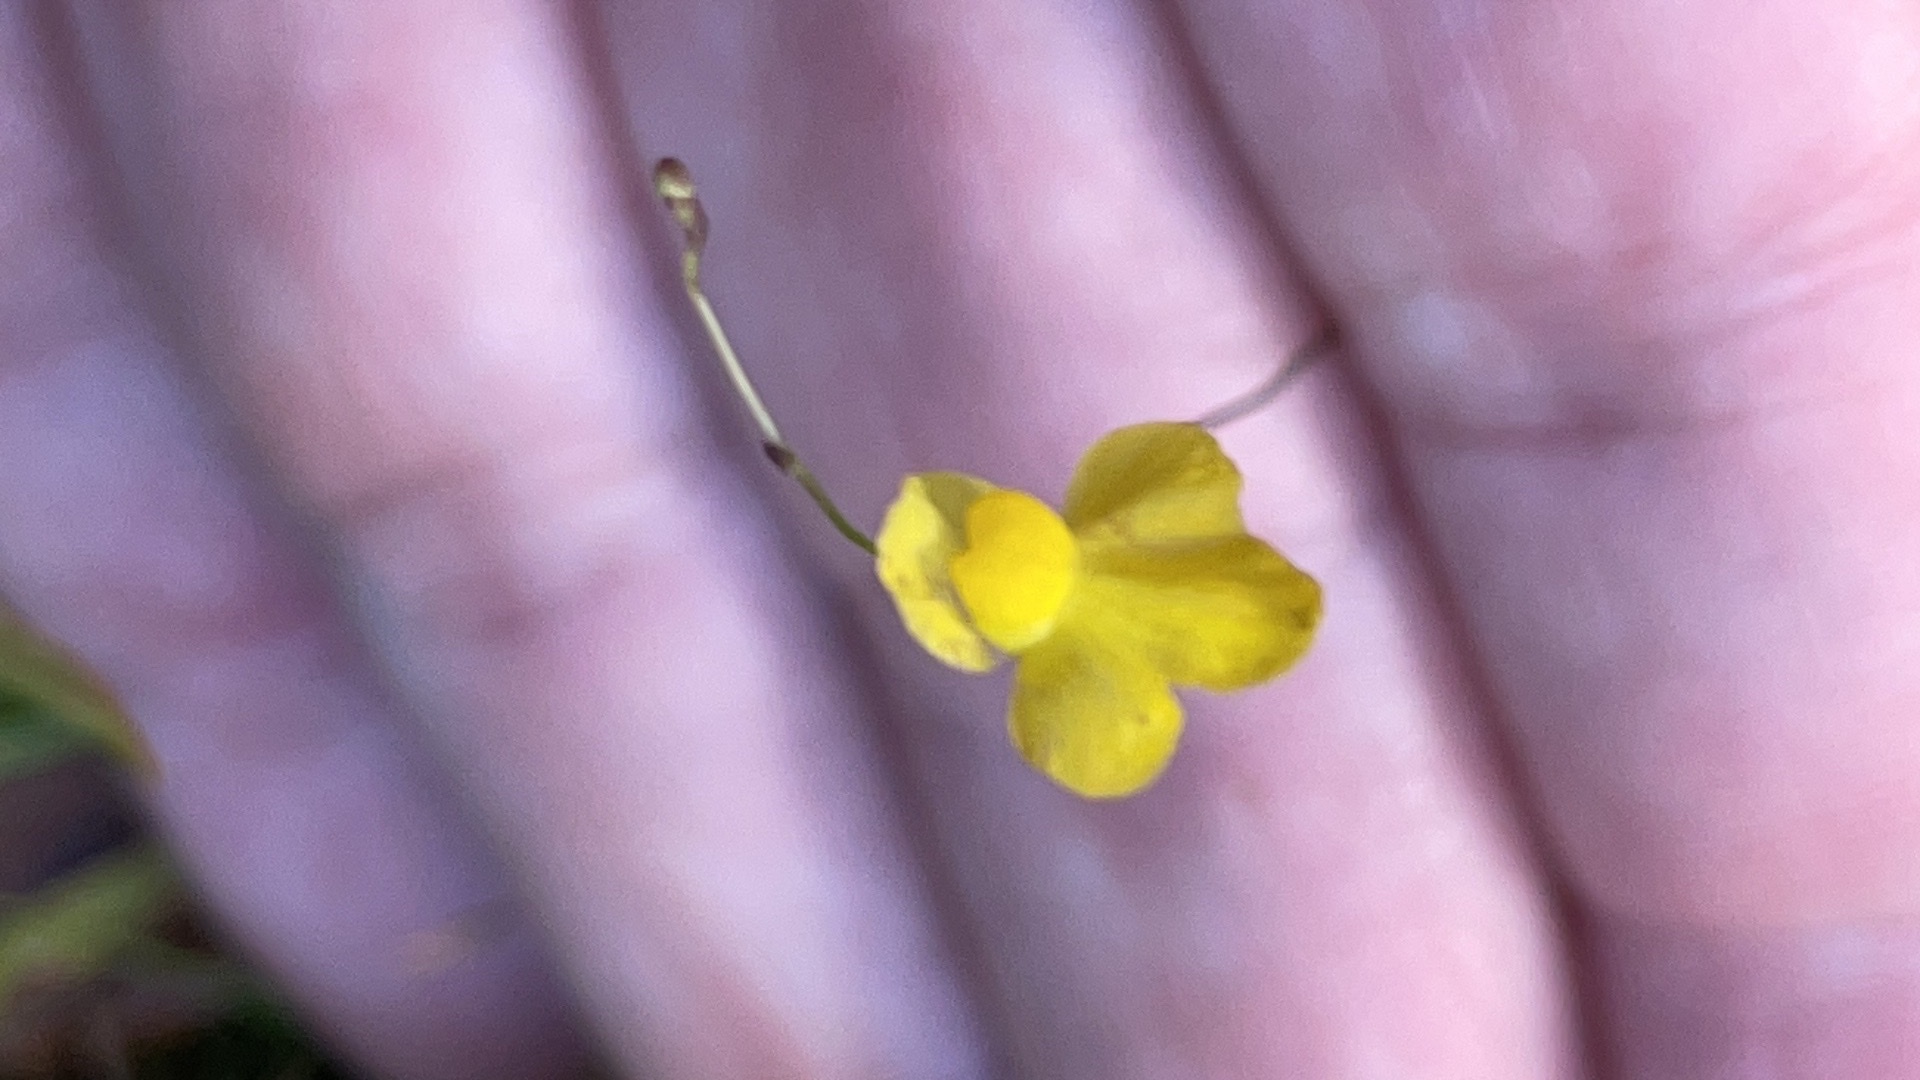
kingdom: Plantae
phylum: Tracheophyta
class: Magnoliopsida
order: Lamiales
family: Lentibulariaceae
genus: Utricularia
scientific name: Utricularia subulata
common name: Tiny bladderwort
